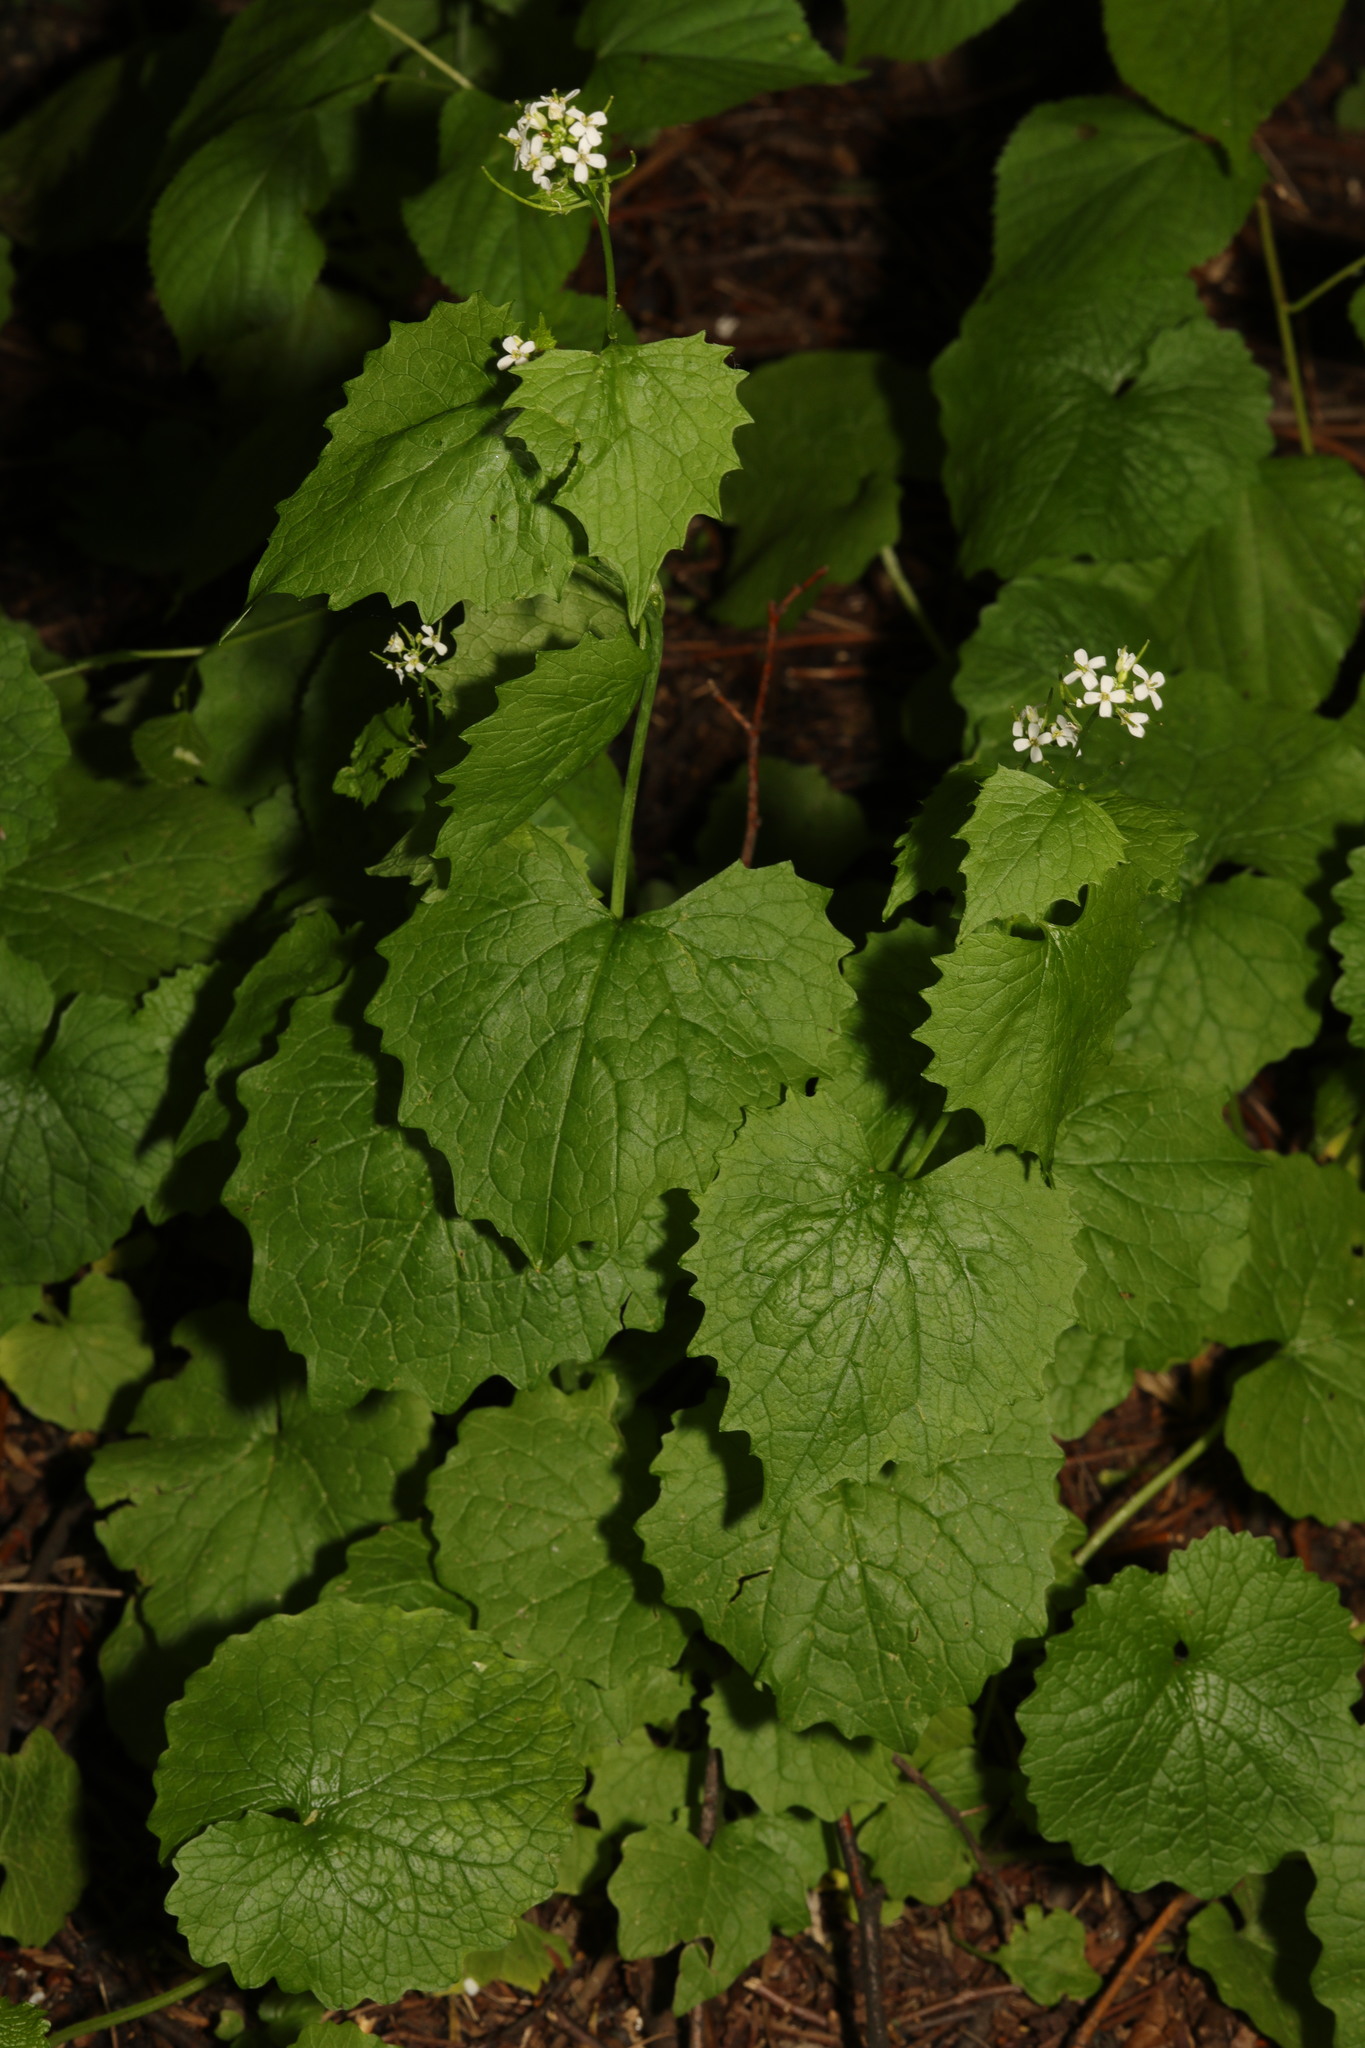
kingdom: Plantae
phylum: Tracheophyta
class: Magnoliopsida
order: Brassicales
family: Brassicaceae
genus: Alliaria
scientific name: Alliaria petiolata
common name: Garlic mustard
